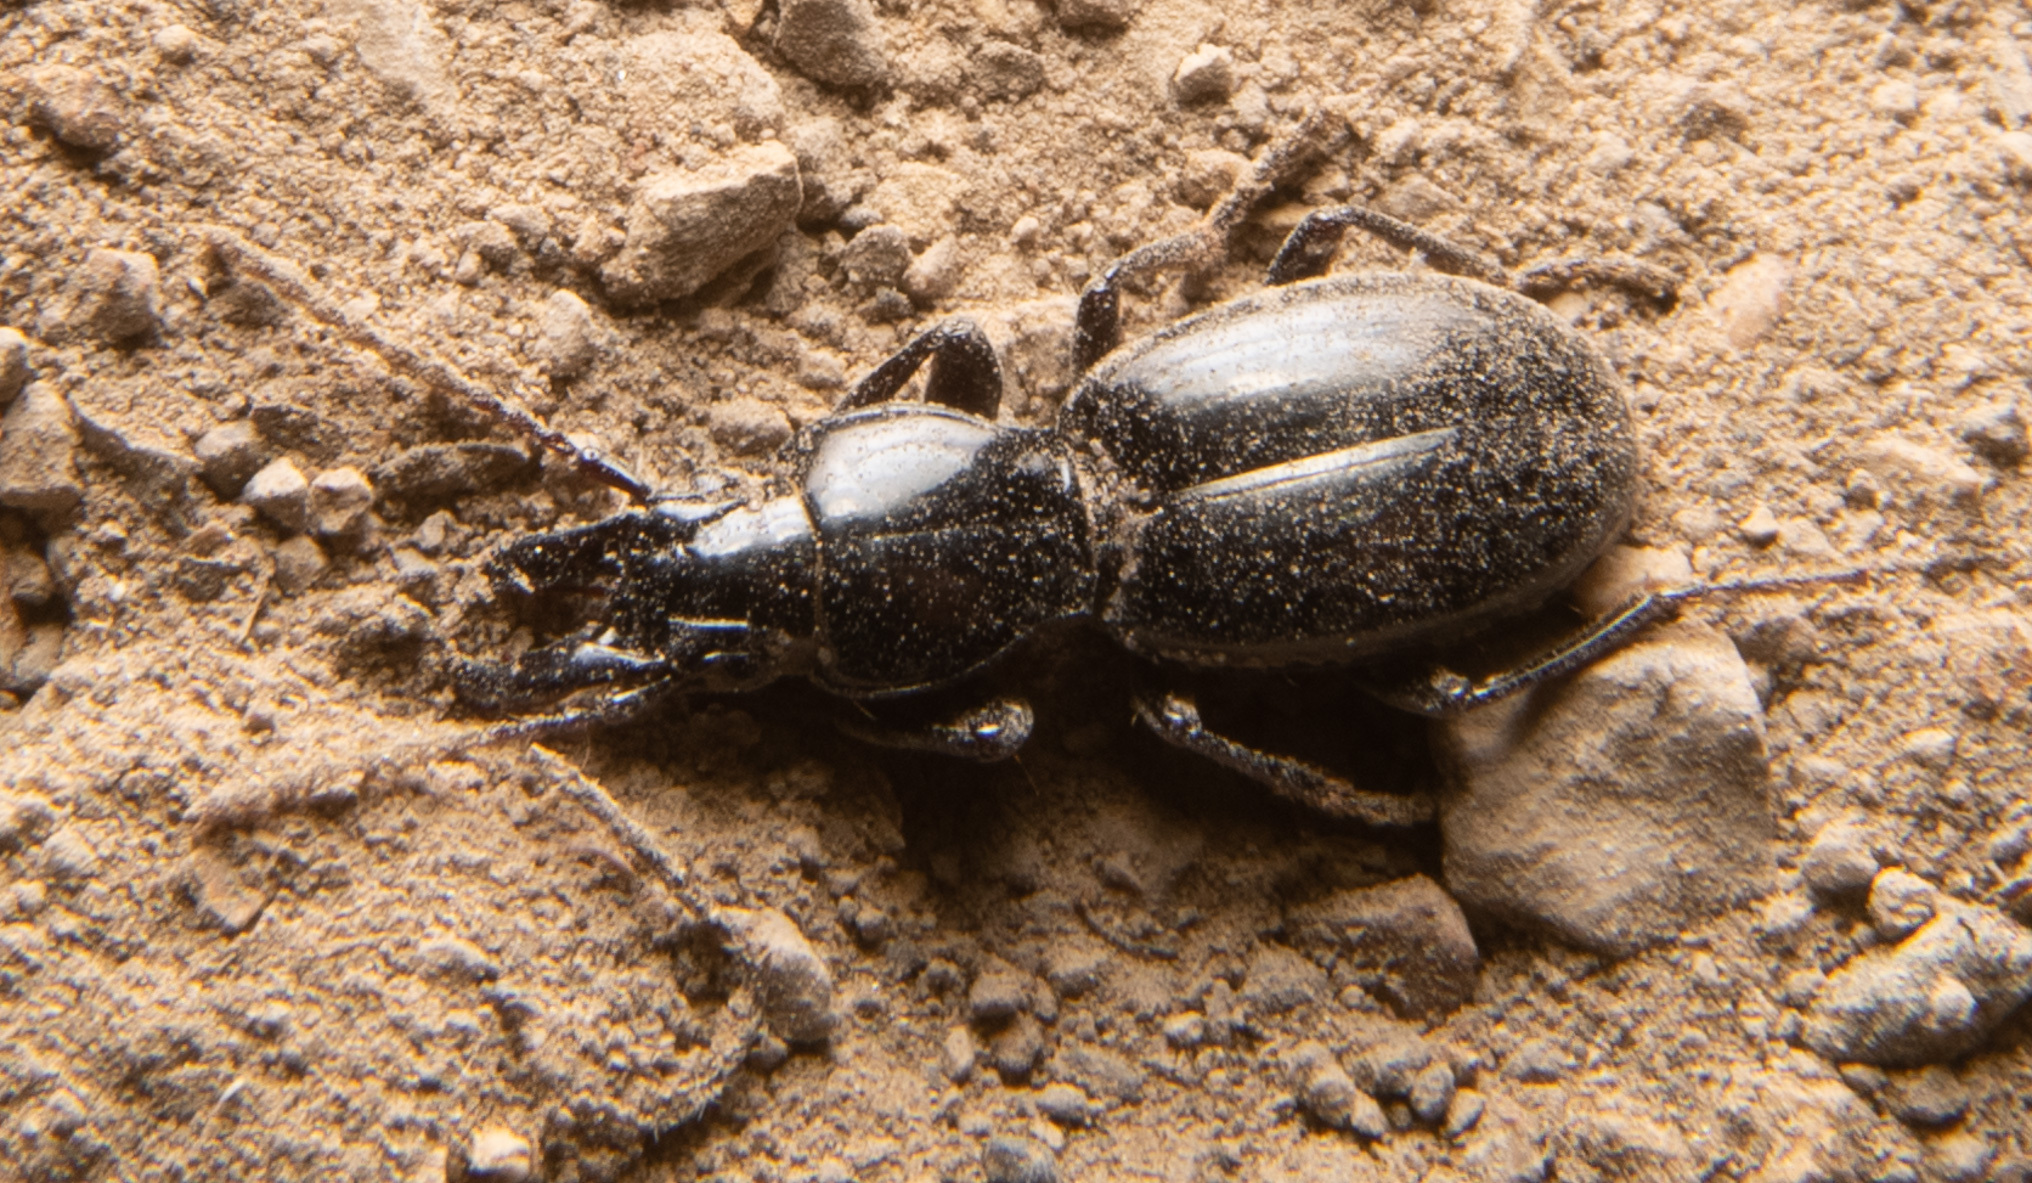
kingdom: Animalia
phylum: Arthropoda
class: Insecta
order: Coleoptera
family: Carabidae
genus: Promecognathus
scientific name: Promecognathus laevissimus
